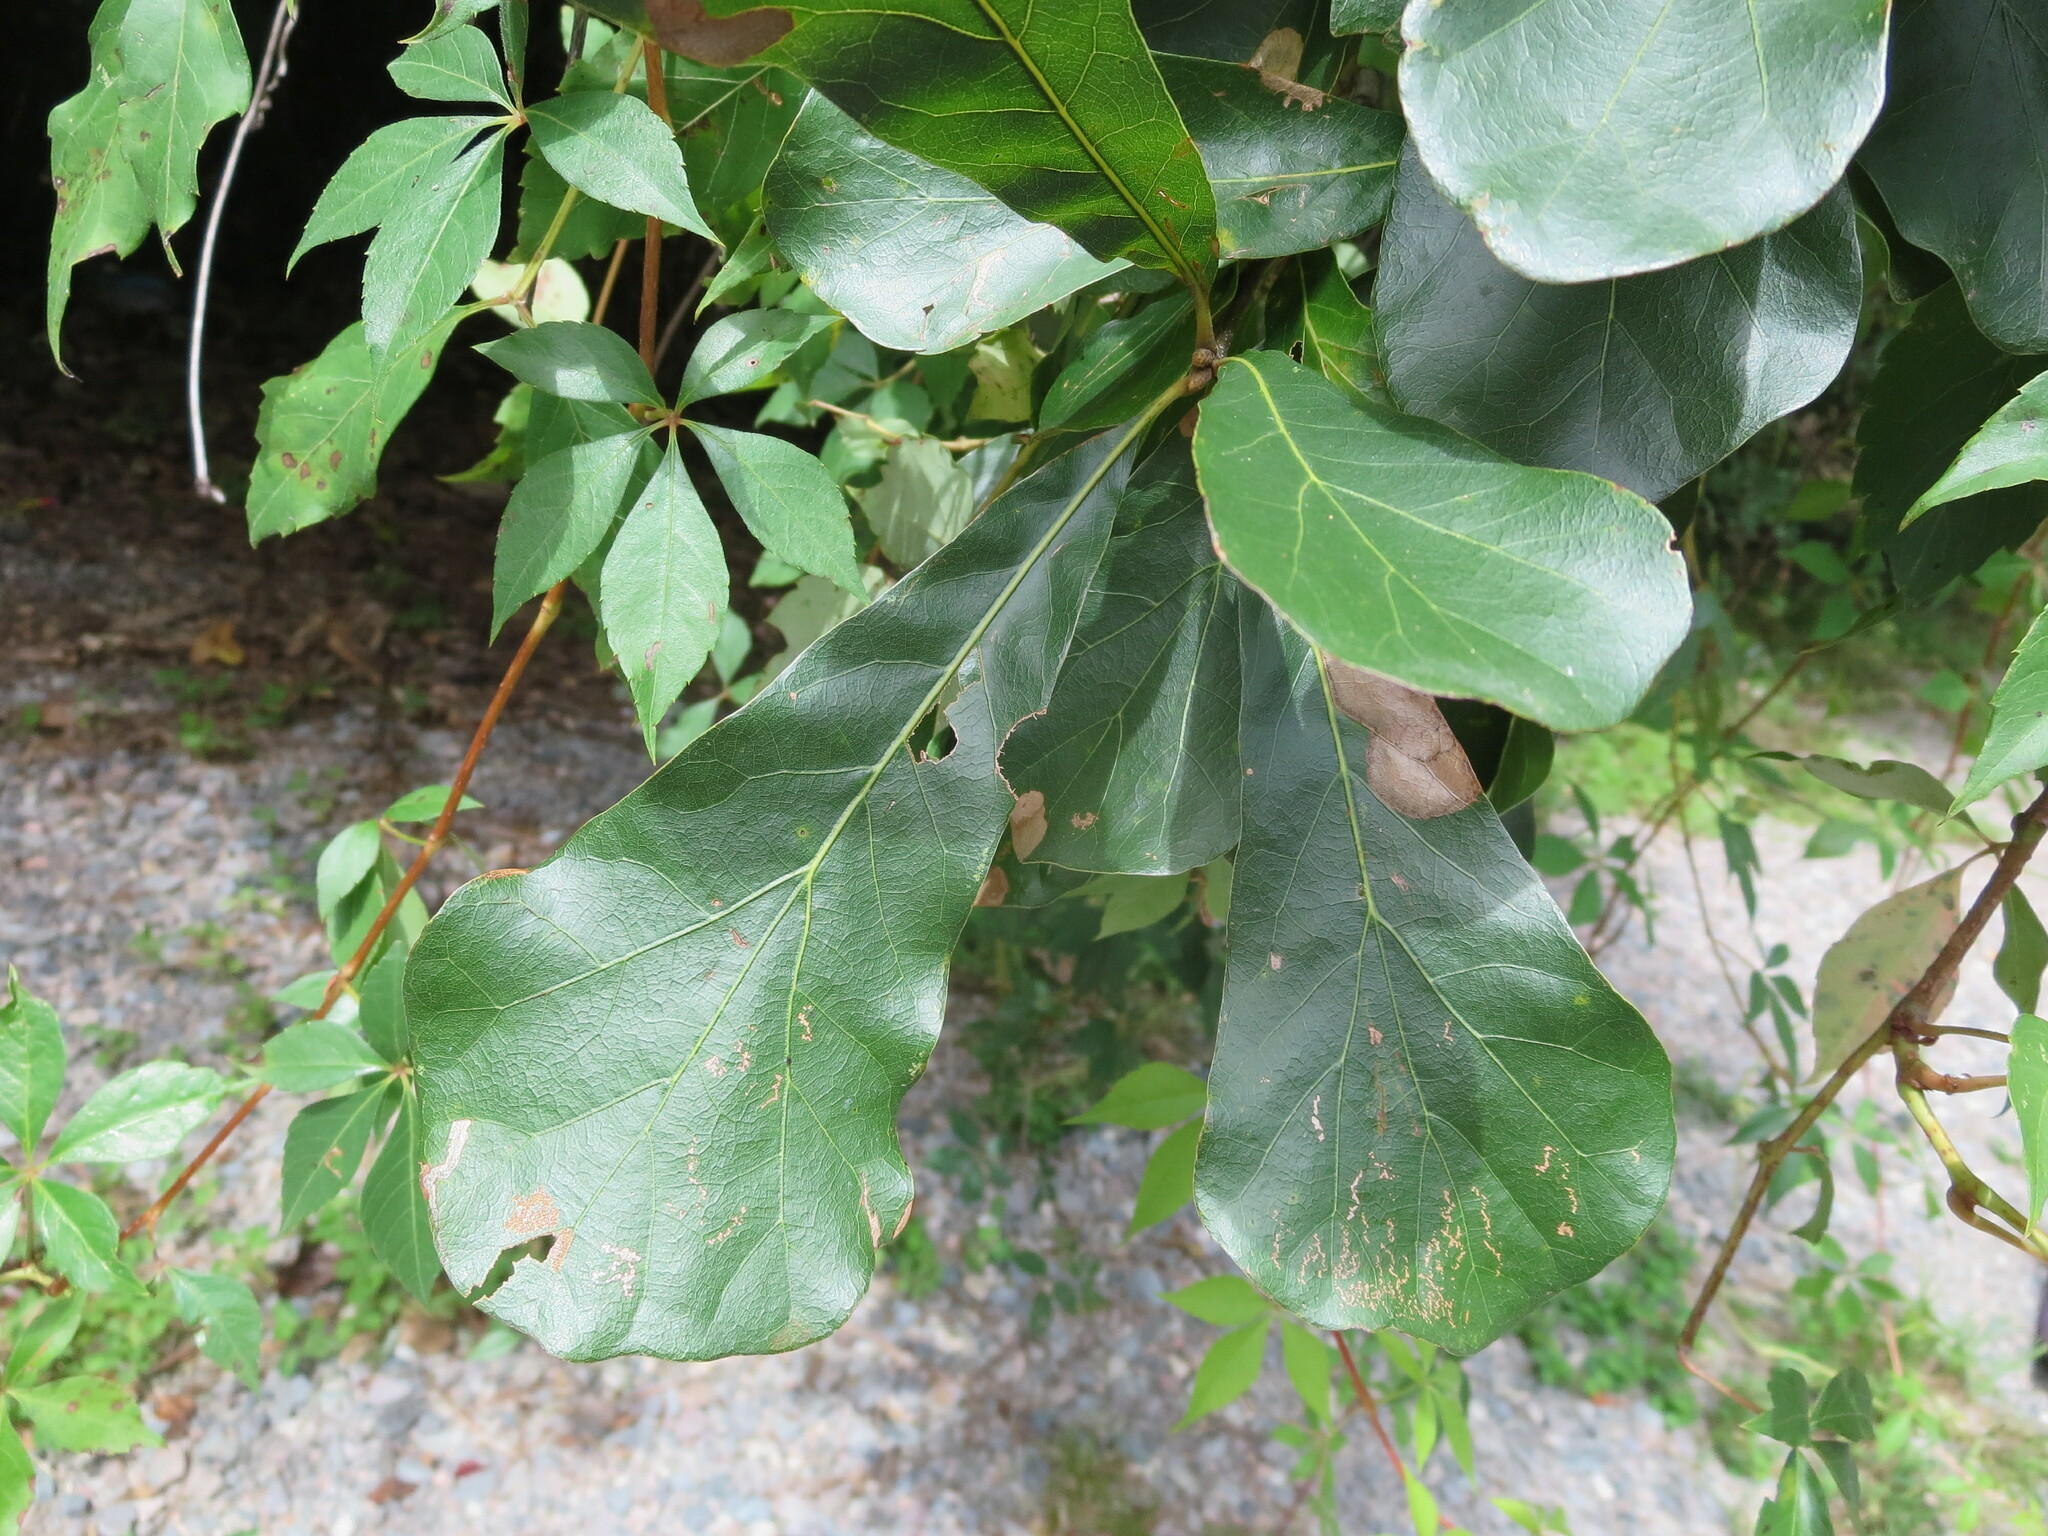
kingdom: Plantae
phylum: Tracheophyta
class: Magnoliopsida
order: Fagales
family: Fagaceae
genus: Quercus
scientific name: Quercus nigra
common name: Water oak
